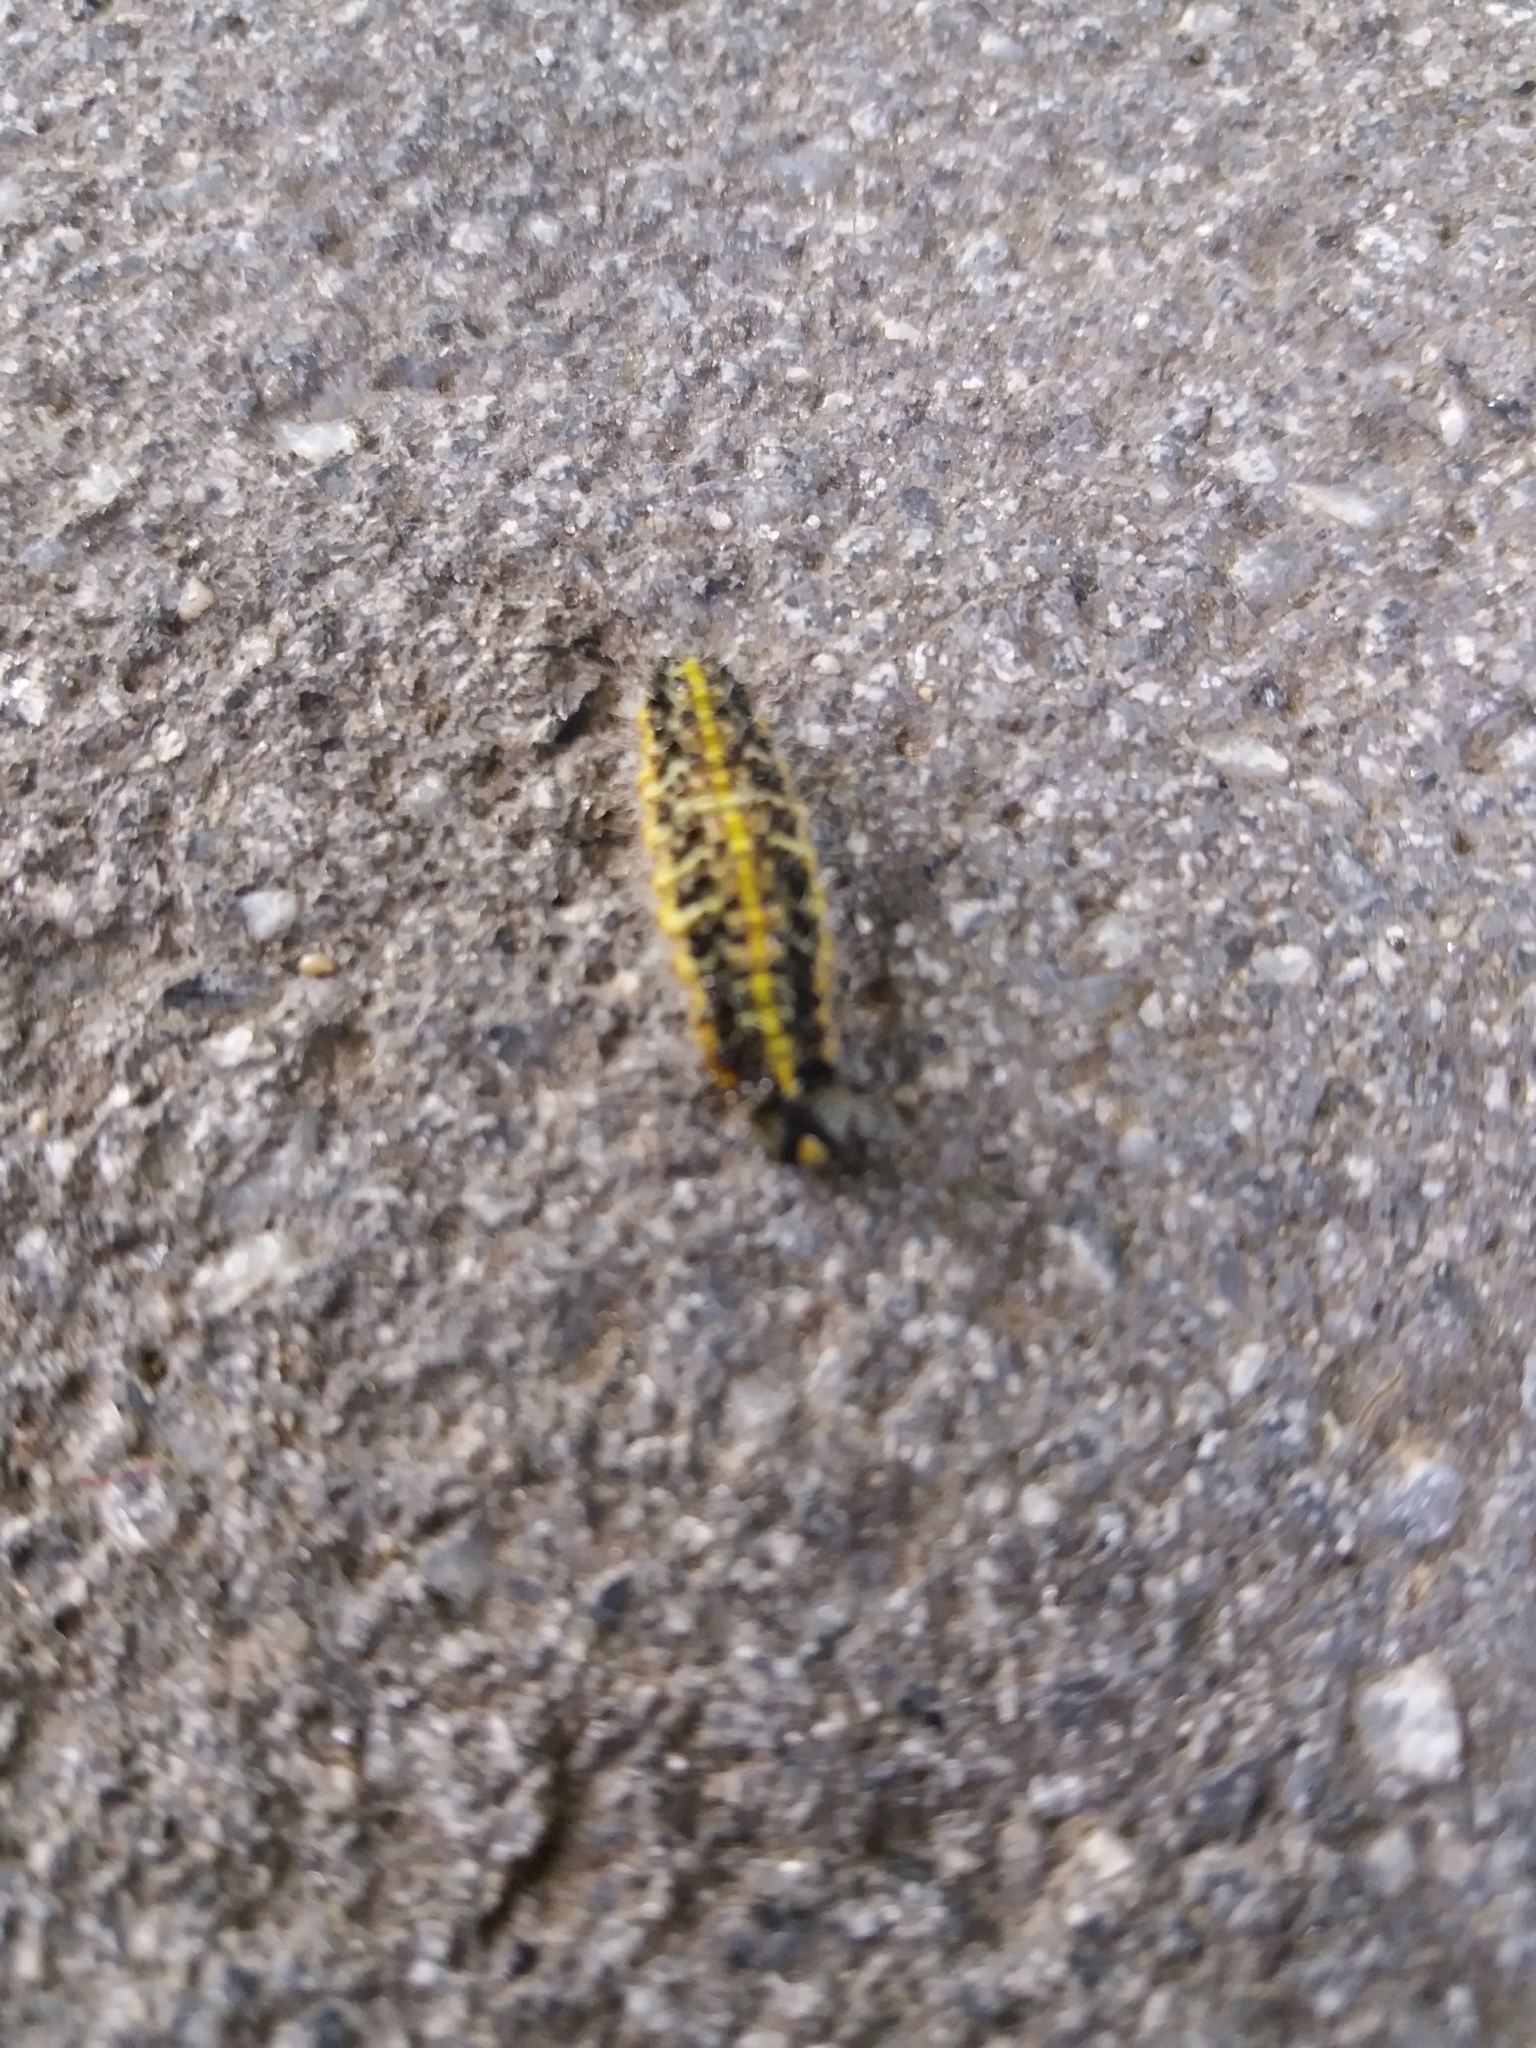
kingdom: Animalia
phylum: Arthropoda
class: Insecta
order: Lepidoptera
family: Pieridae
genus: Pieris
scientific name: Pieris brassicae
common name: Large white
